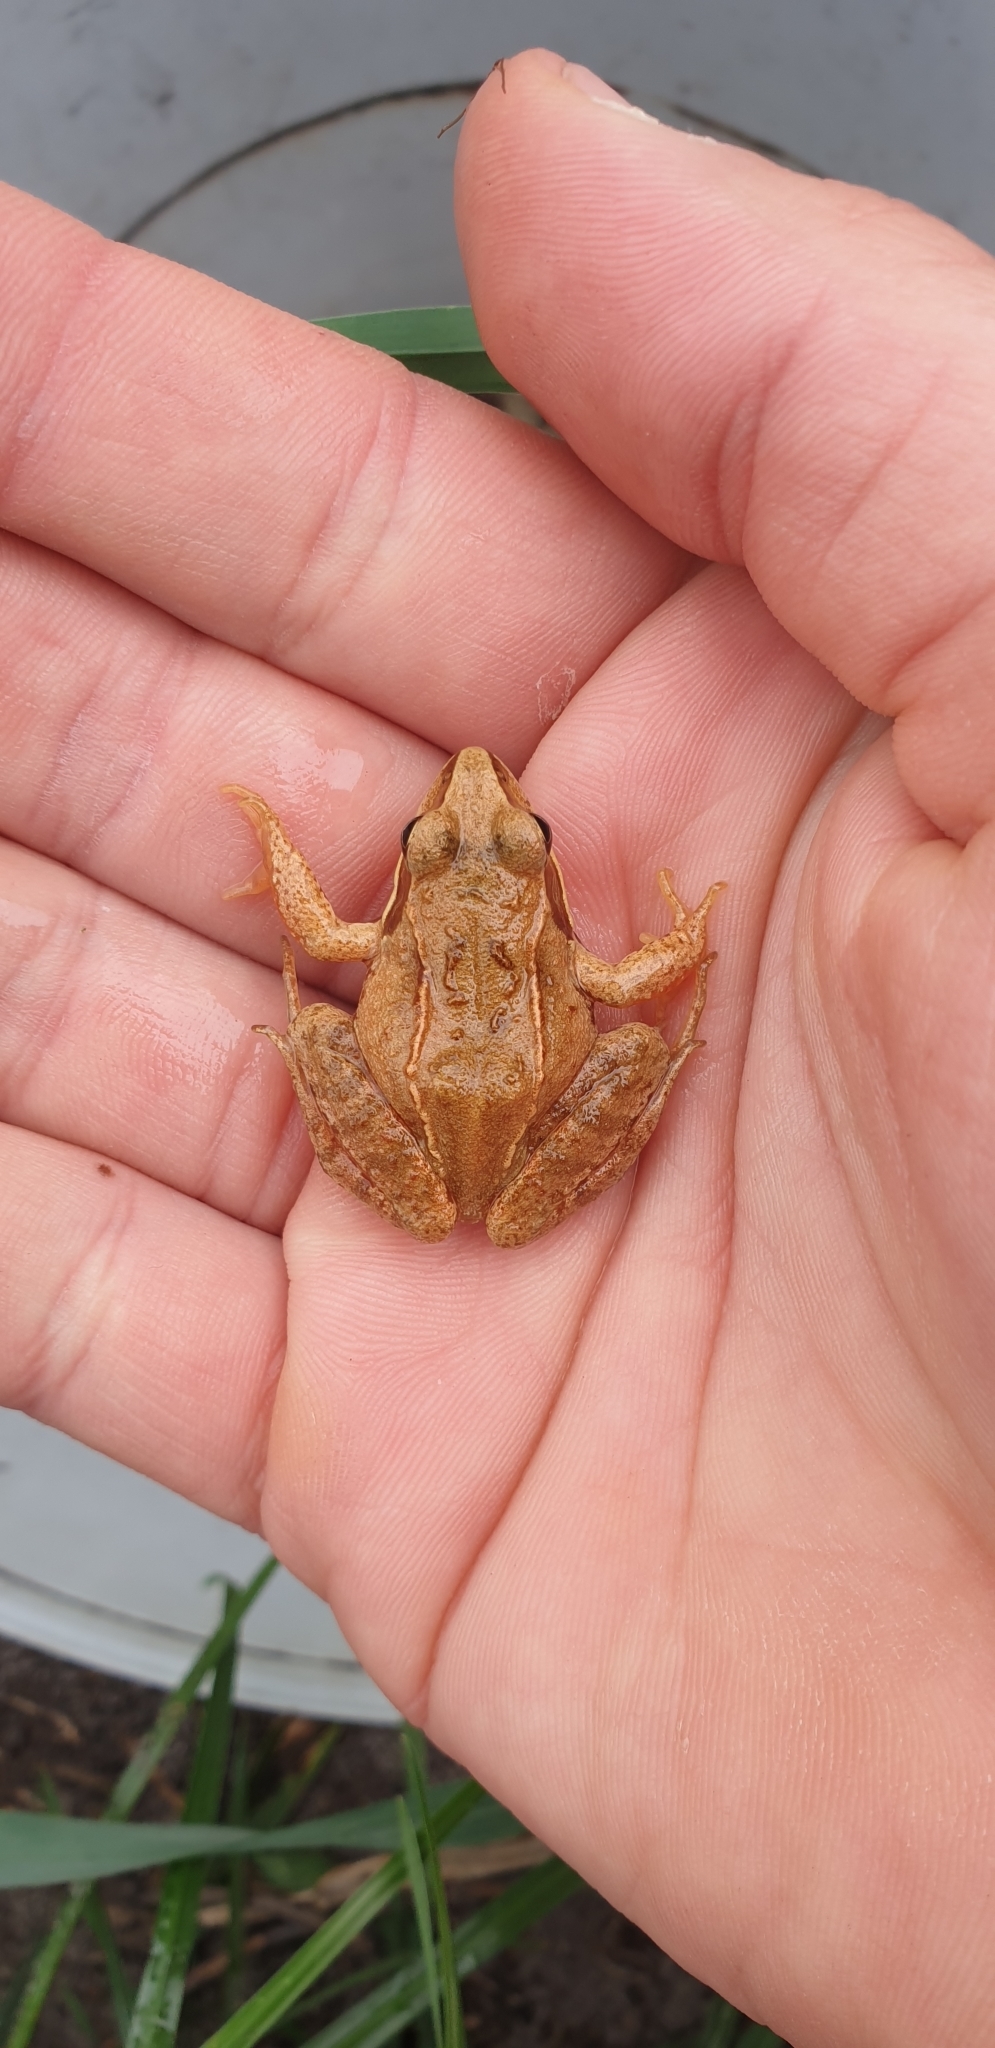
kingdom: Animalia
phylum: Chordata
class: Amphibia
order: Anura
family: Ranidae
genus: Rana
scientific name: Rana arvalis
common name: Moor frog
